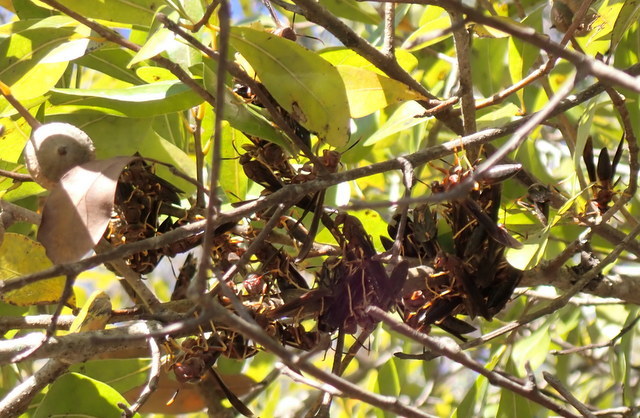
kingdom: Animalia
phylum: Arthropoda
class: Insecta
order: Hymenoptera
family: Eumenidae
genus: Polistes
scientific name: Polistes annularis
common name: Ringed paper wasp
